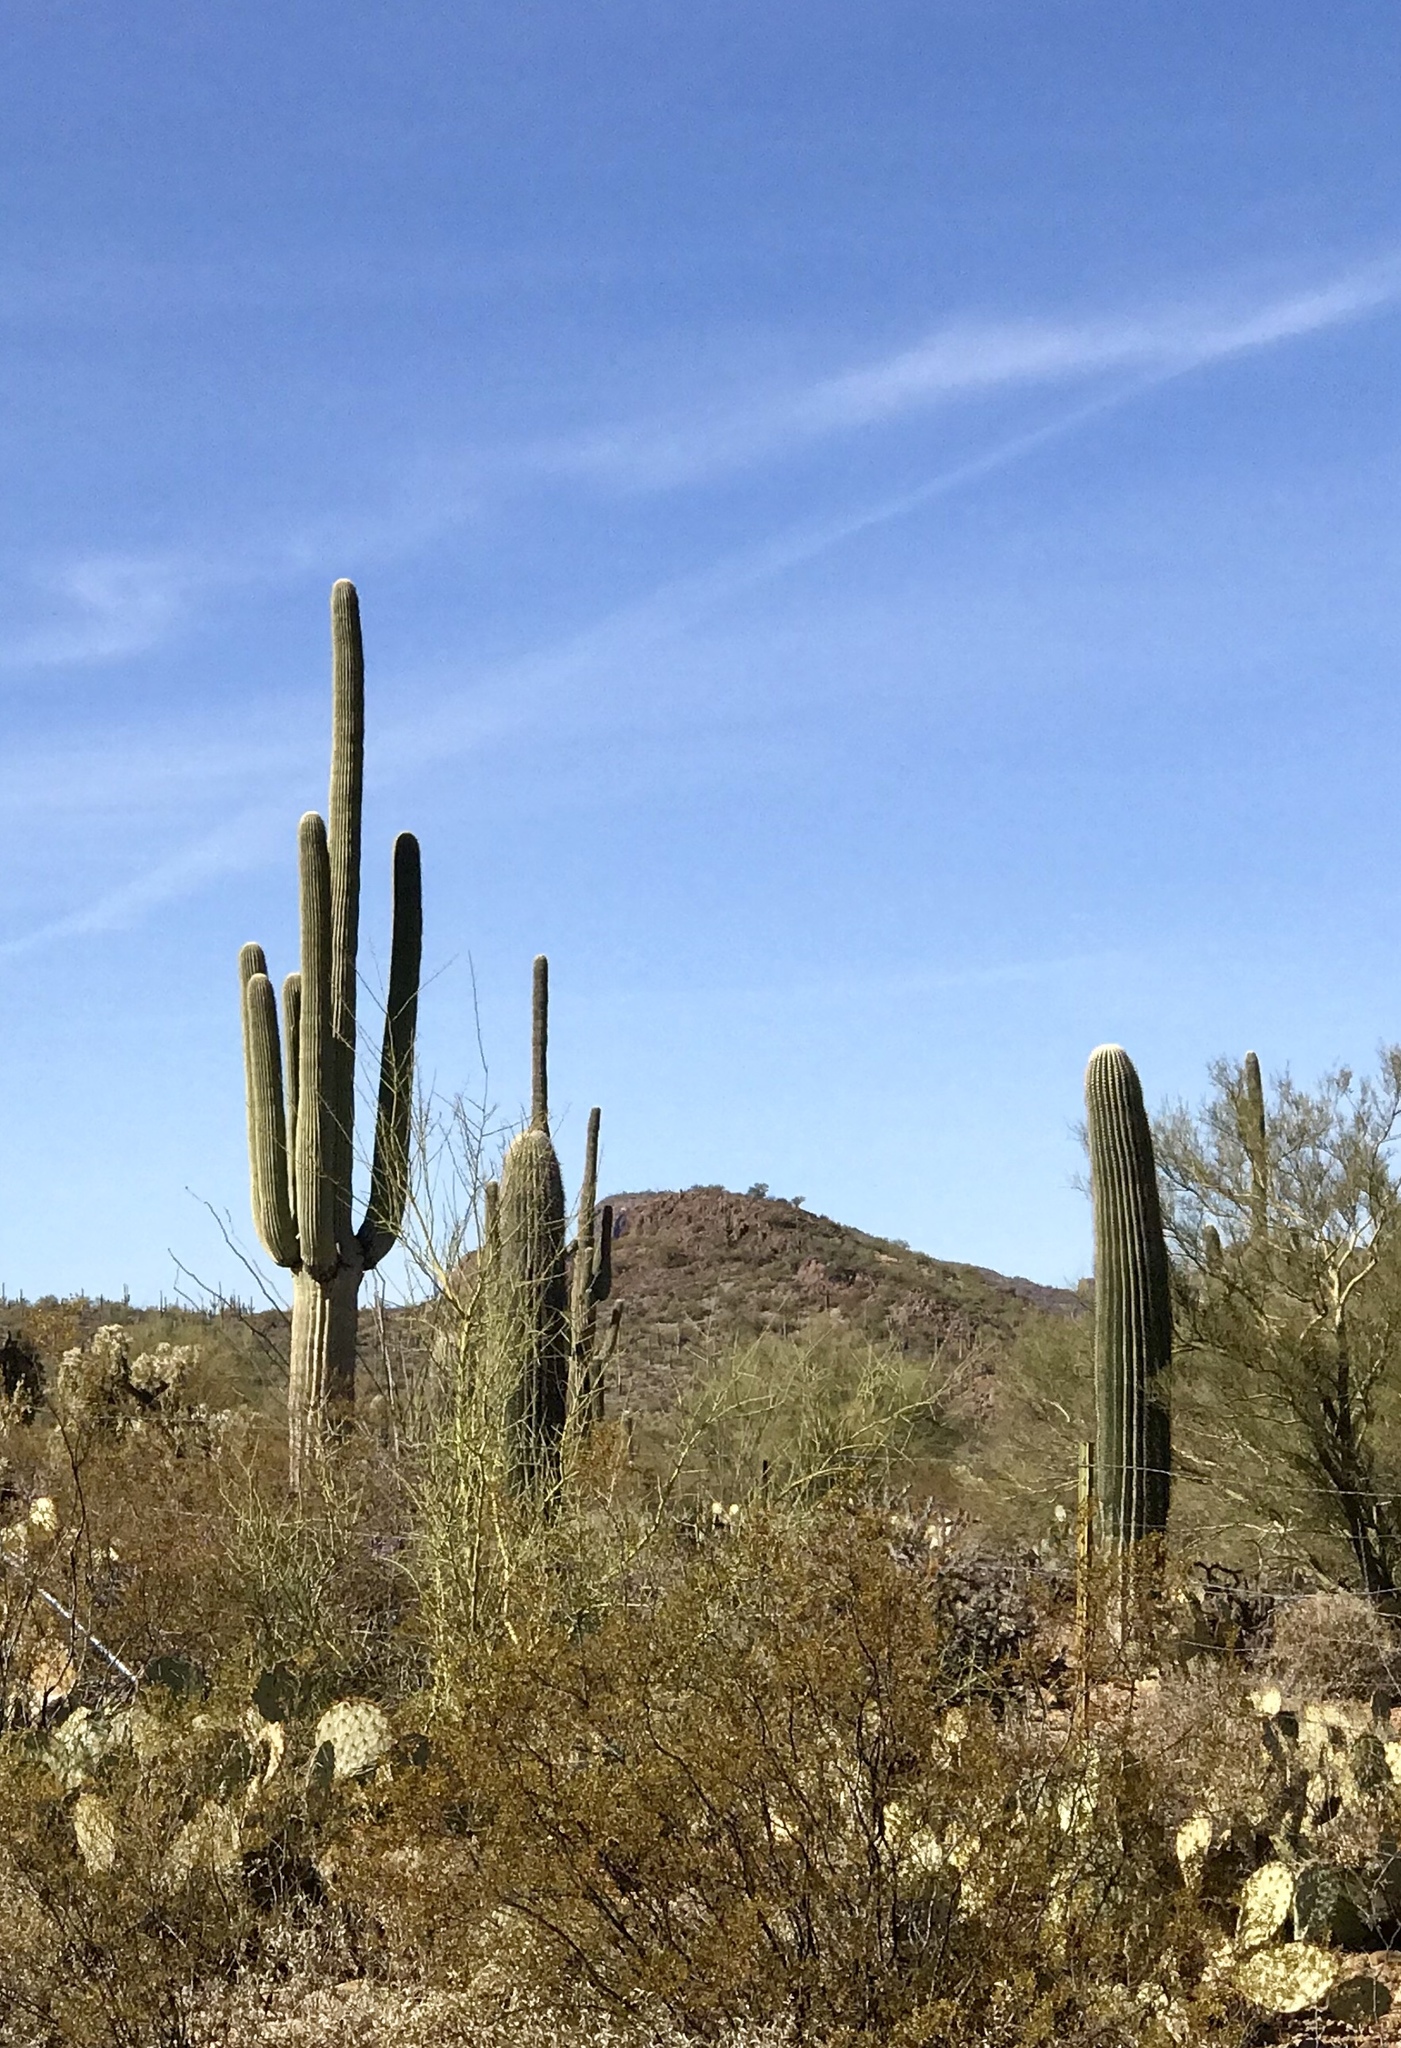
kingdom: Plantae
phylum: Tracheophyta
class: Magnoliopsida
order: Caryophyllales
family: Cactaceae
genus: Carnegiea
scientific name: Carnegiea gigantea
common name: Saguaro
